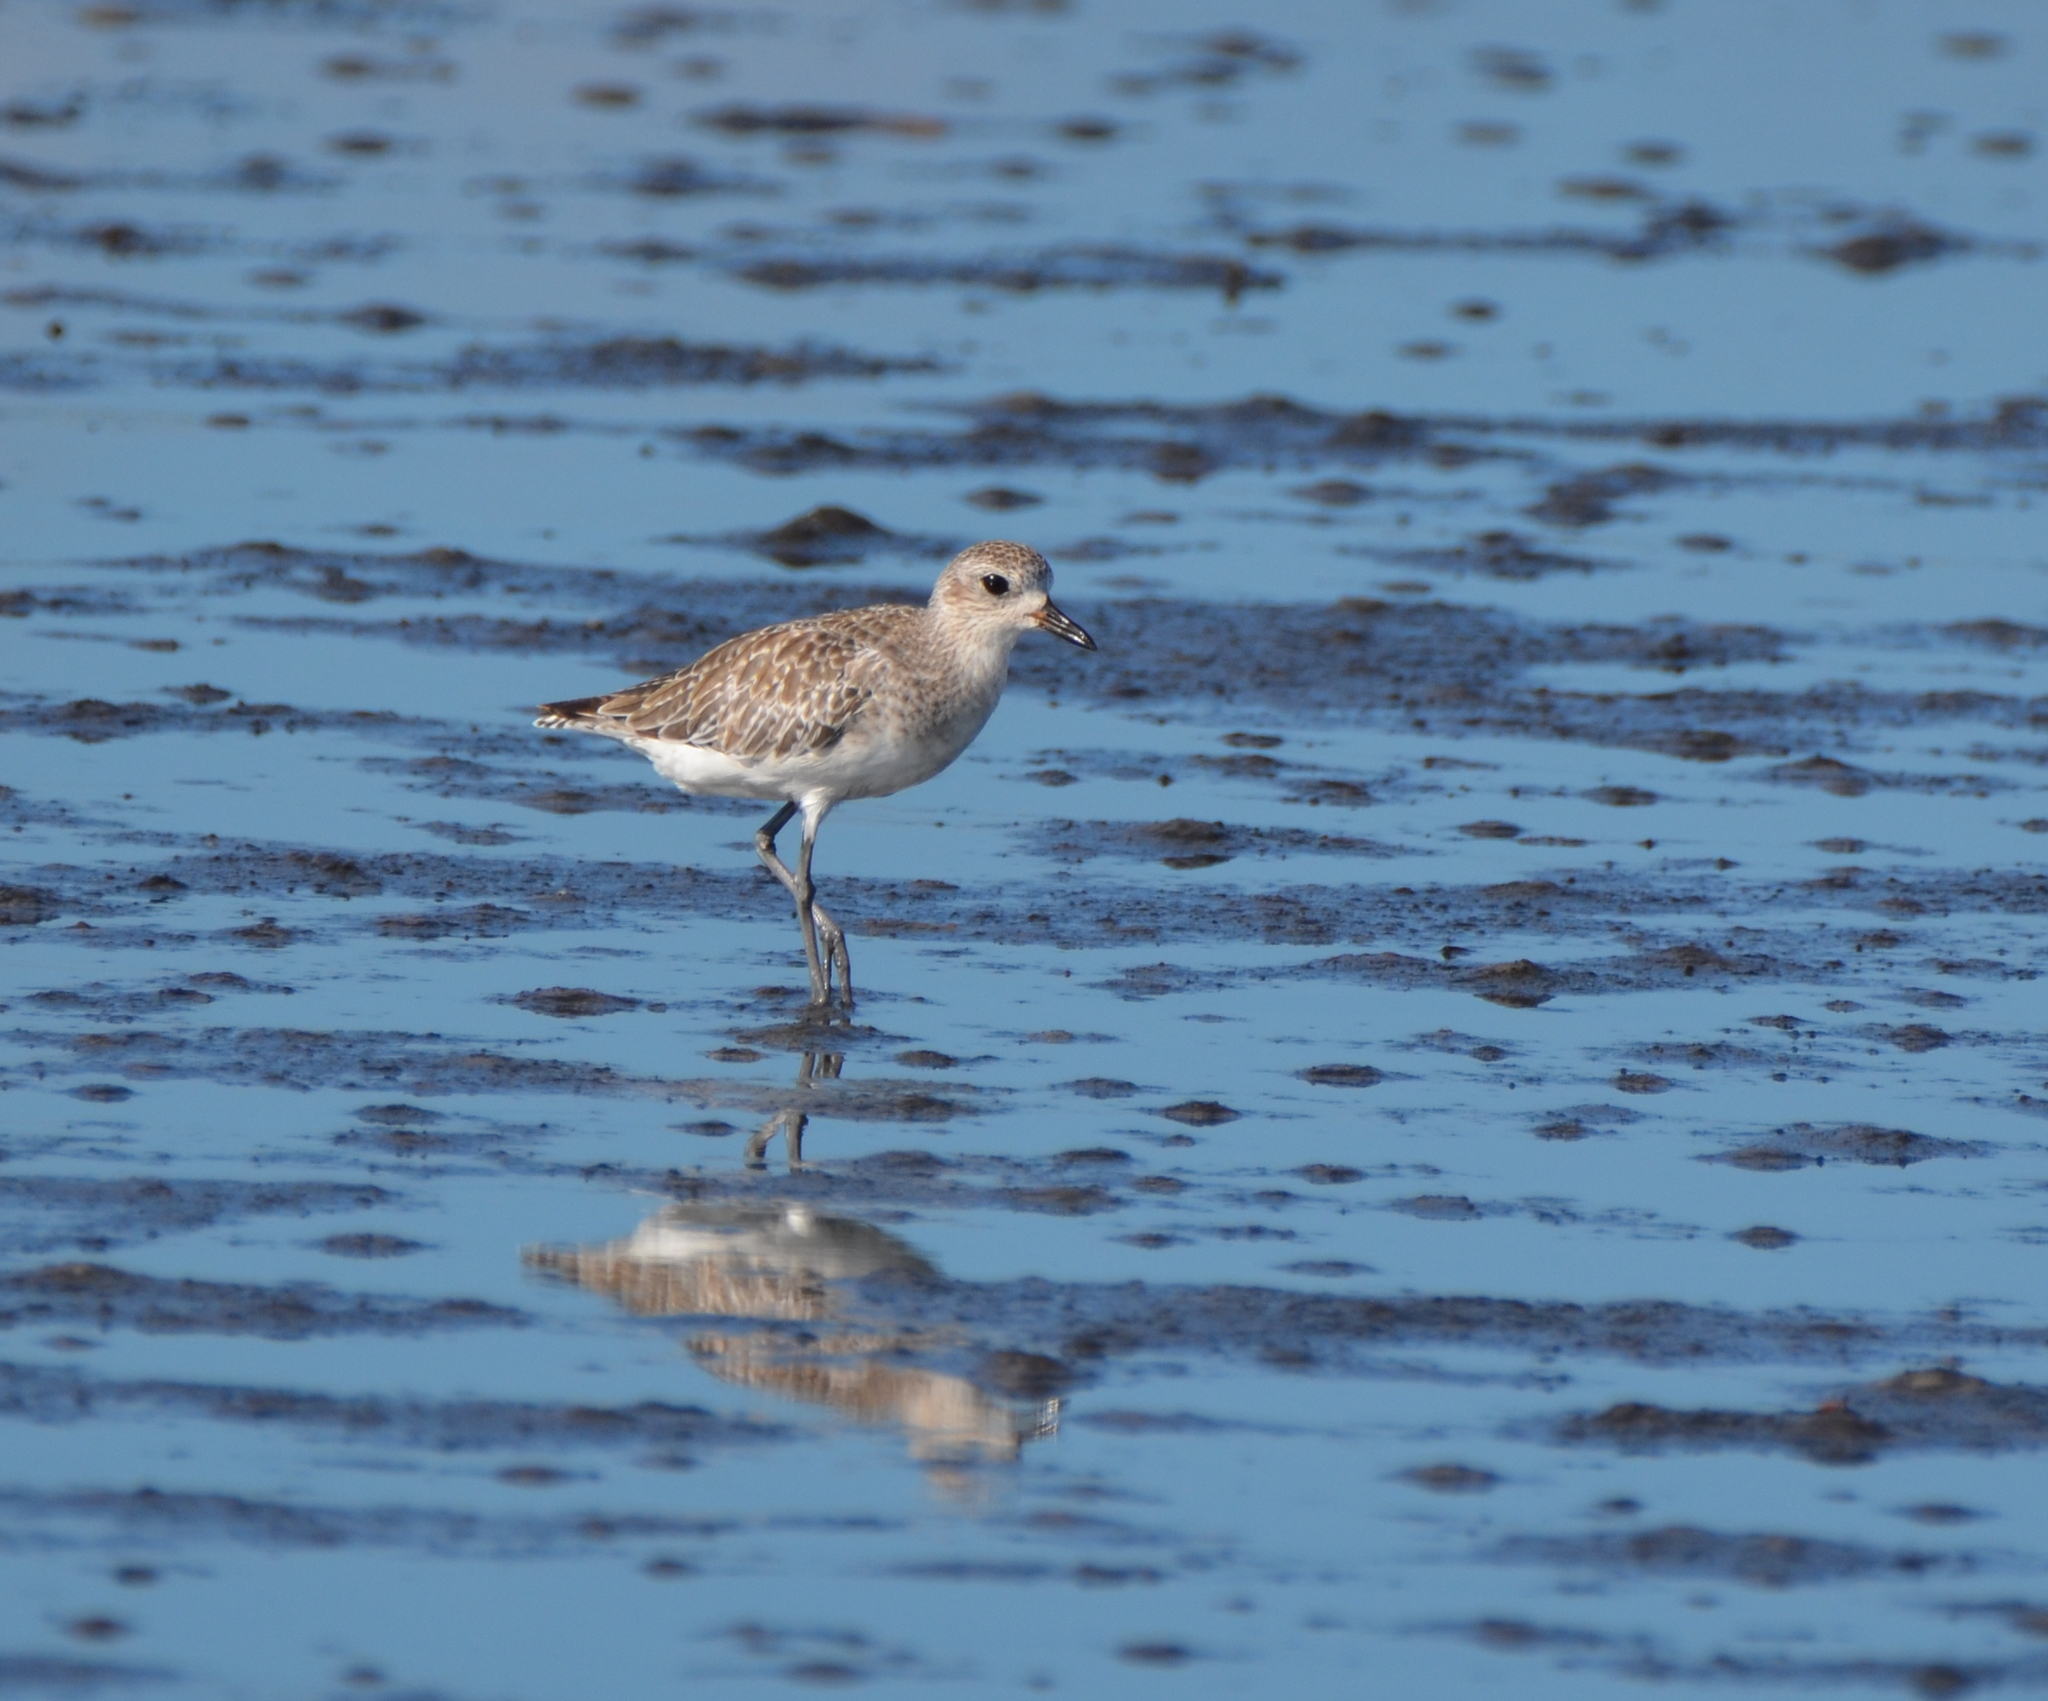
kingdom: Animalia
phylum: Chordata
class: Aves
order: Charadriiformes
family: Charadriidae
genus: Pluvialis
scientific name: Pluvialis squatarola
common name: Grey plover
